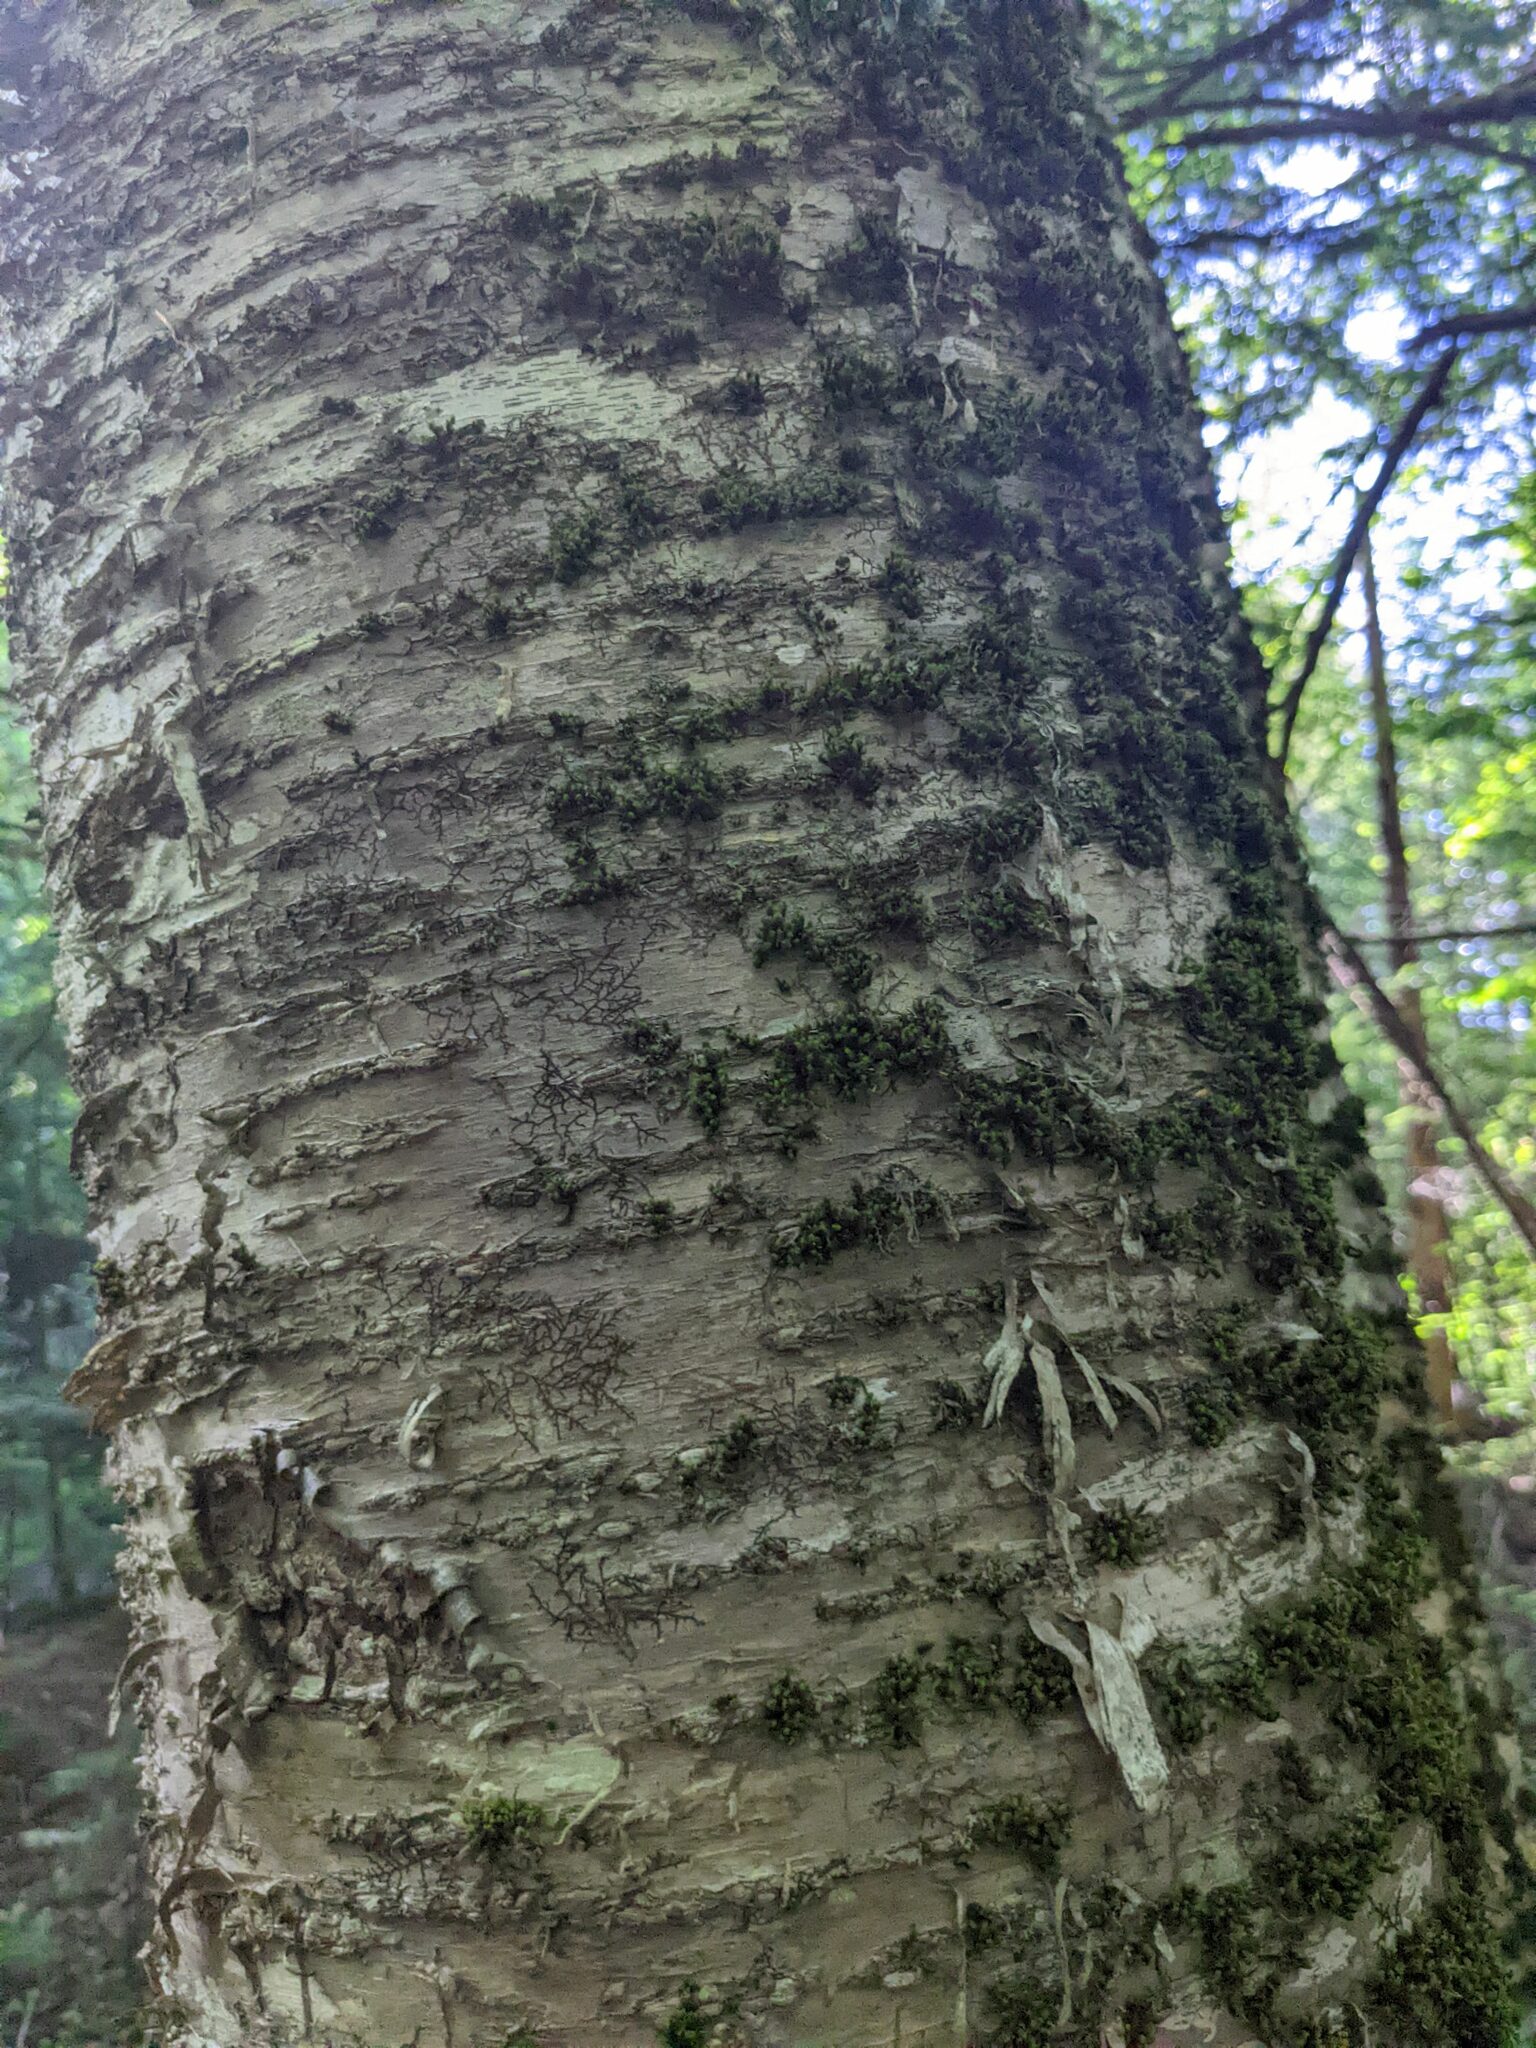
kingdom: Plantae
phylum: Bryophyta
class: Bryopsida
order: Orthotrichales
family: Orthotrichaceae
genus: Ulota
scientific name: Ulota crispa
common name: Crisped pincushion moss
